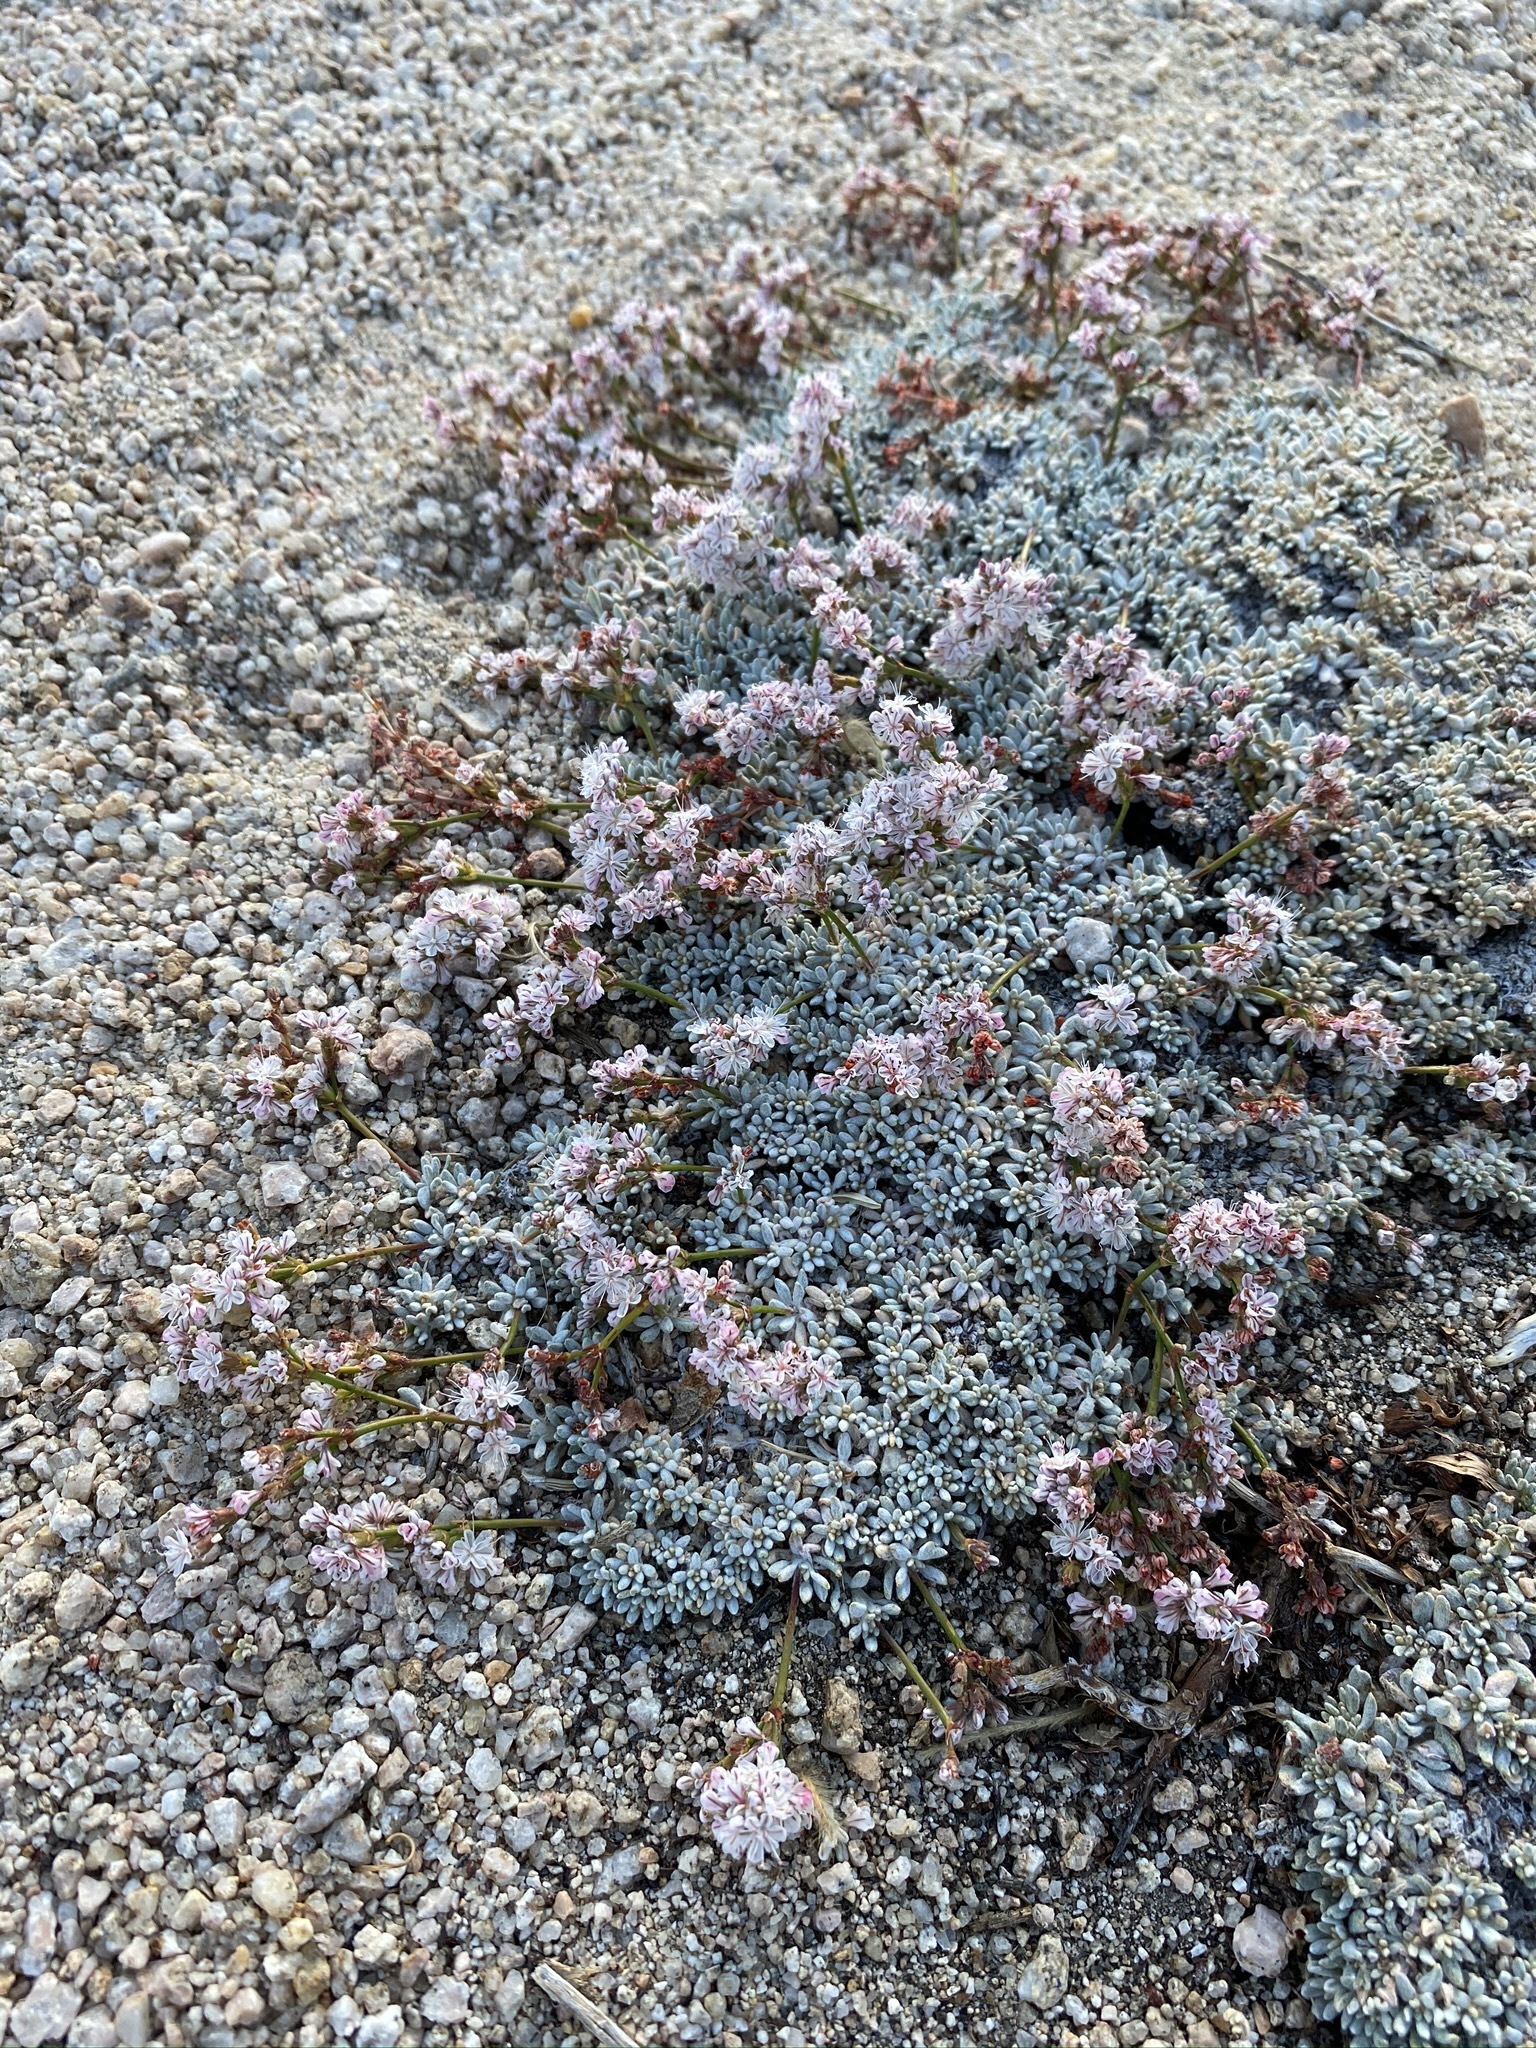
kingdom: Plantae
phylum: Tracheophyta
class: Magnoliopsida
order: Caryophyllales
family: Polygonaceae
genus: Eriogonum
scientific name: Eriogonum wrightii
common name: Bastard-sage
